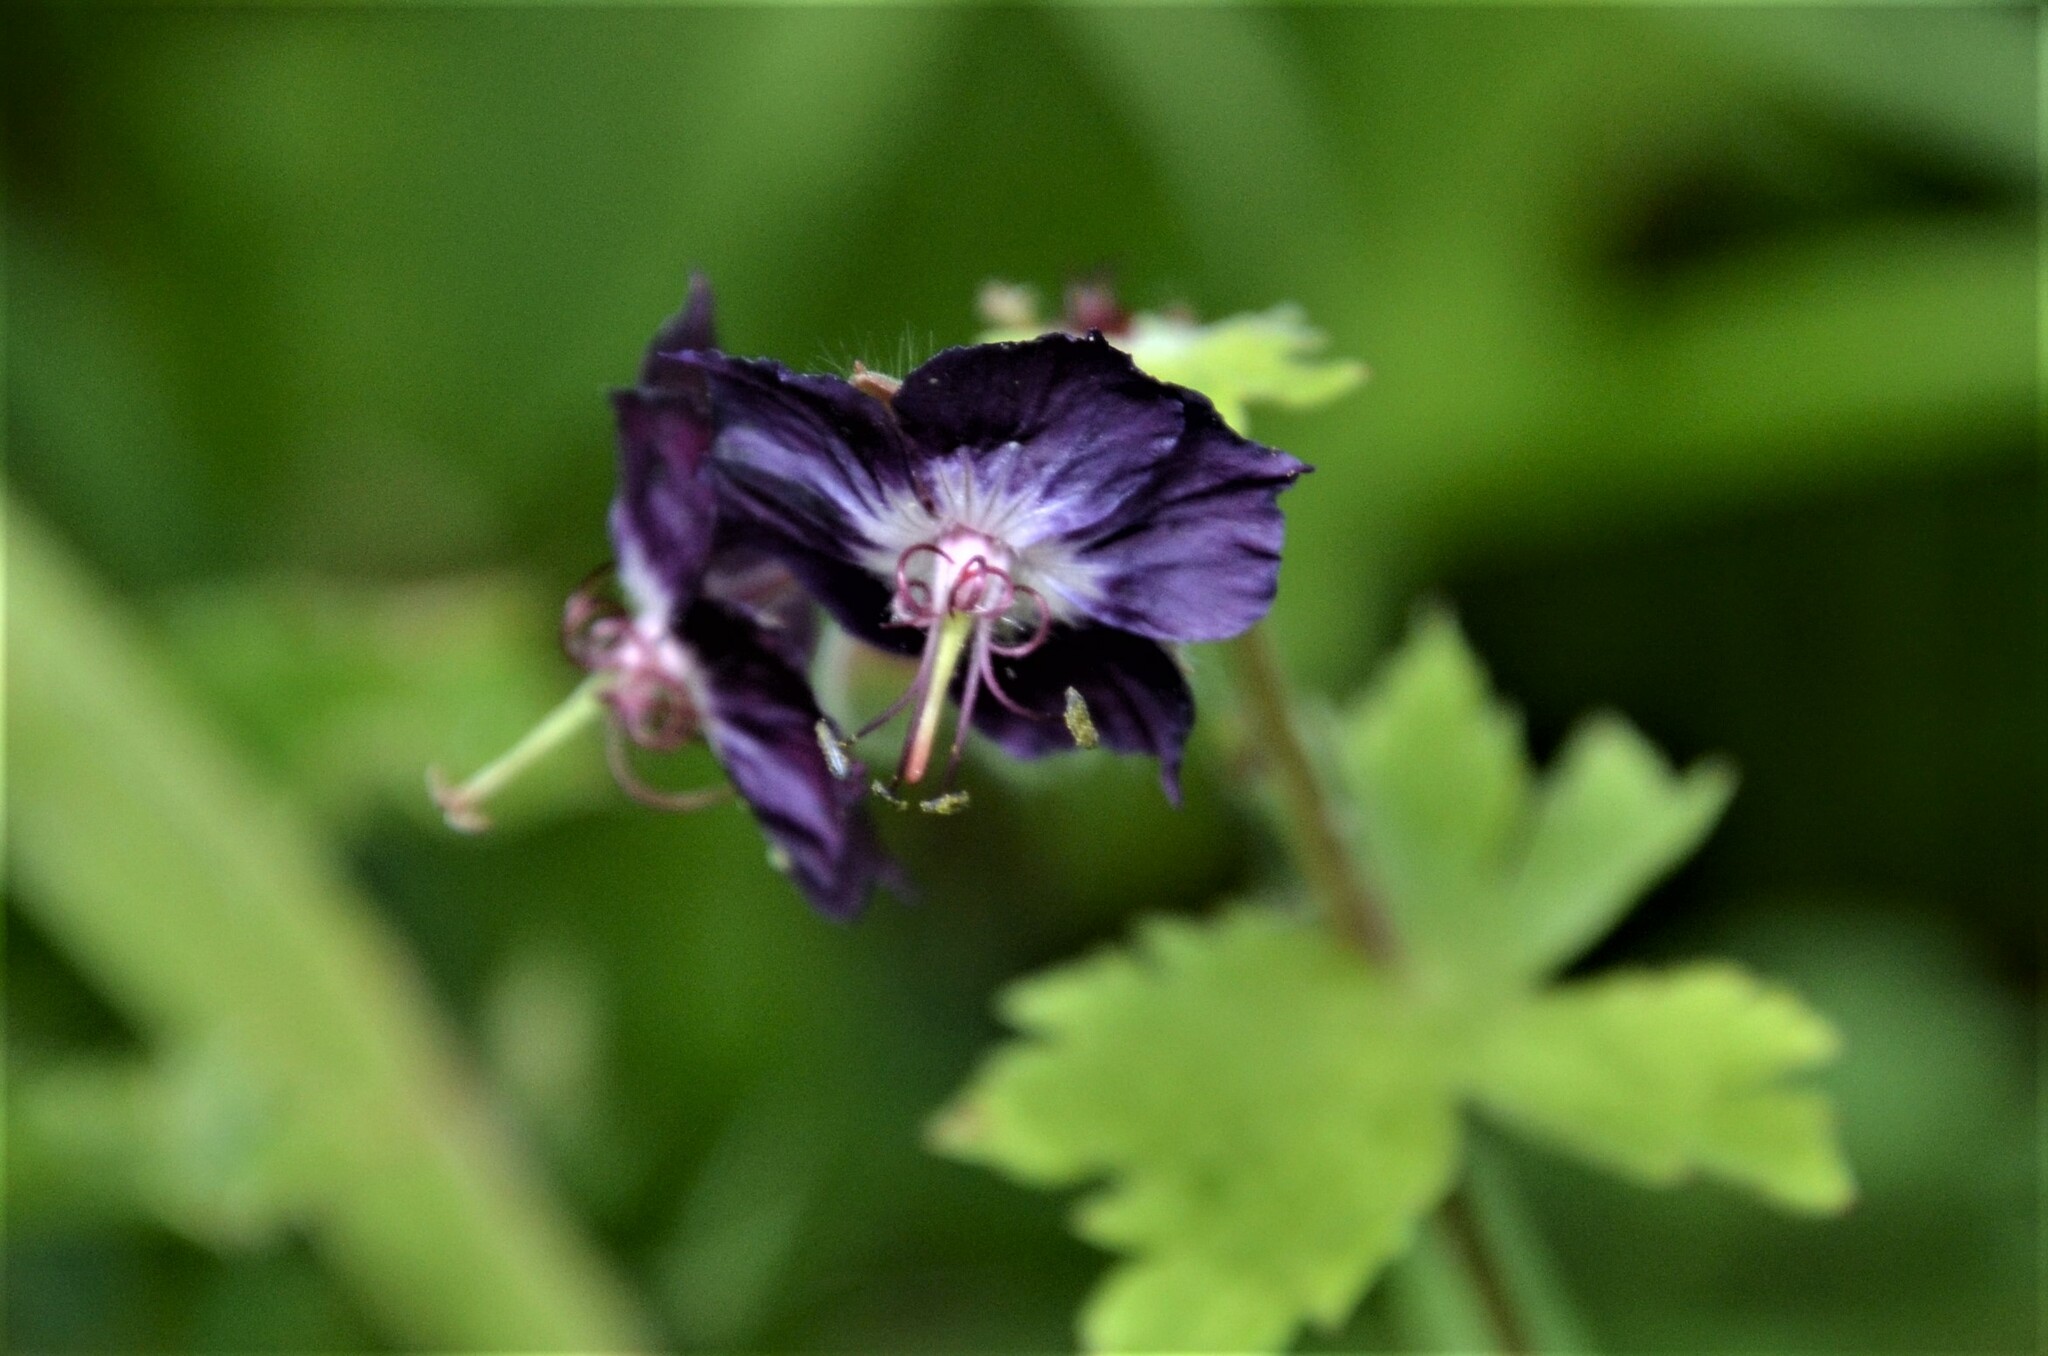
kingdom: Plantae
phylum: Tracheophyta
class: Magnoliopsida
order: Geraniales
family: Geraniaceae
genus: Geranium
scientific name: Geranium phaeum
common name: Dusky crane's-bill
